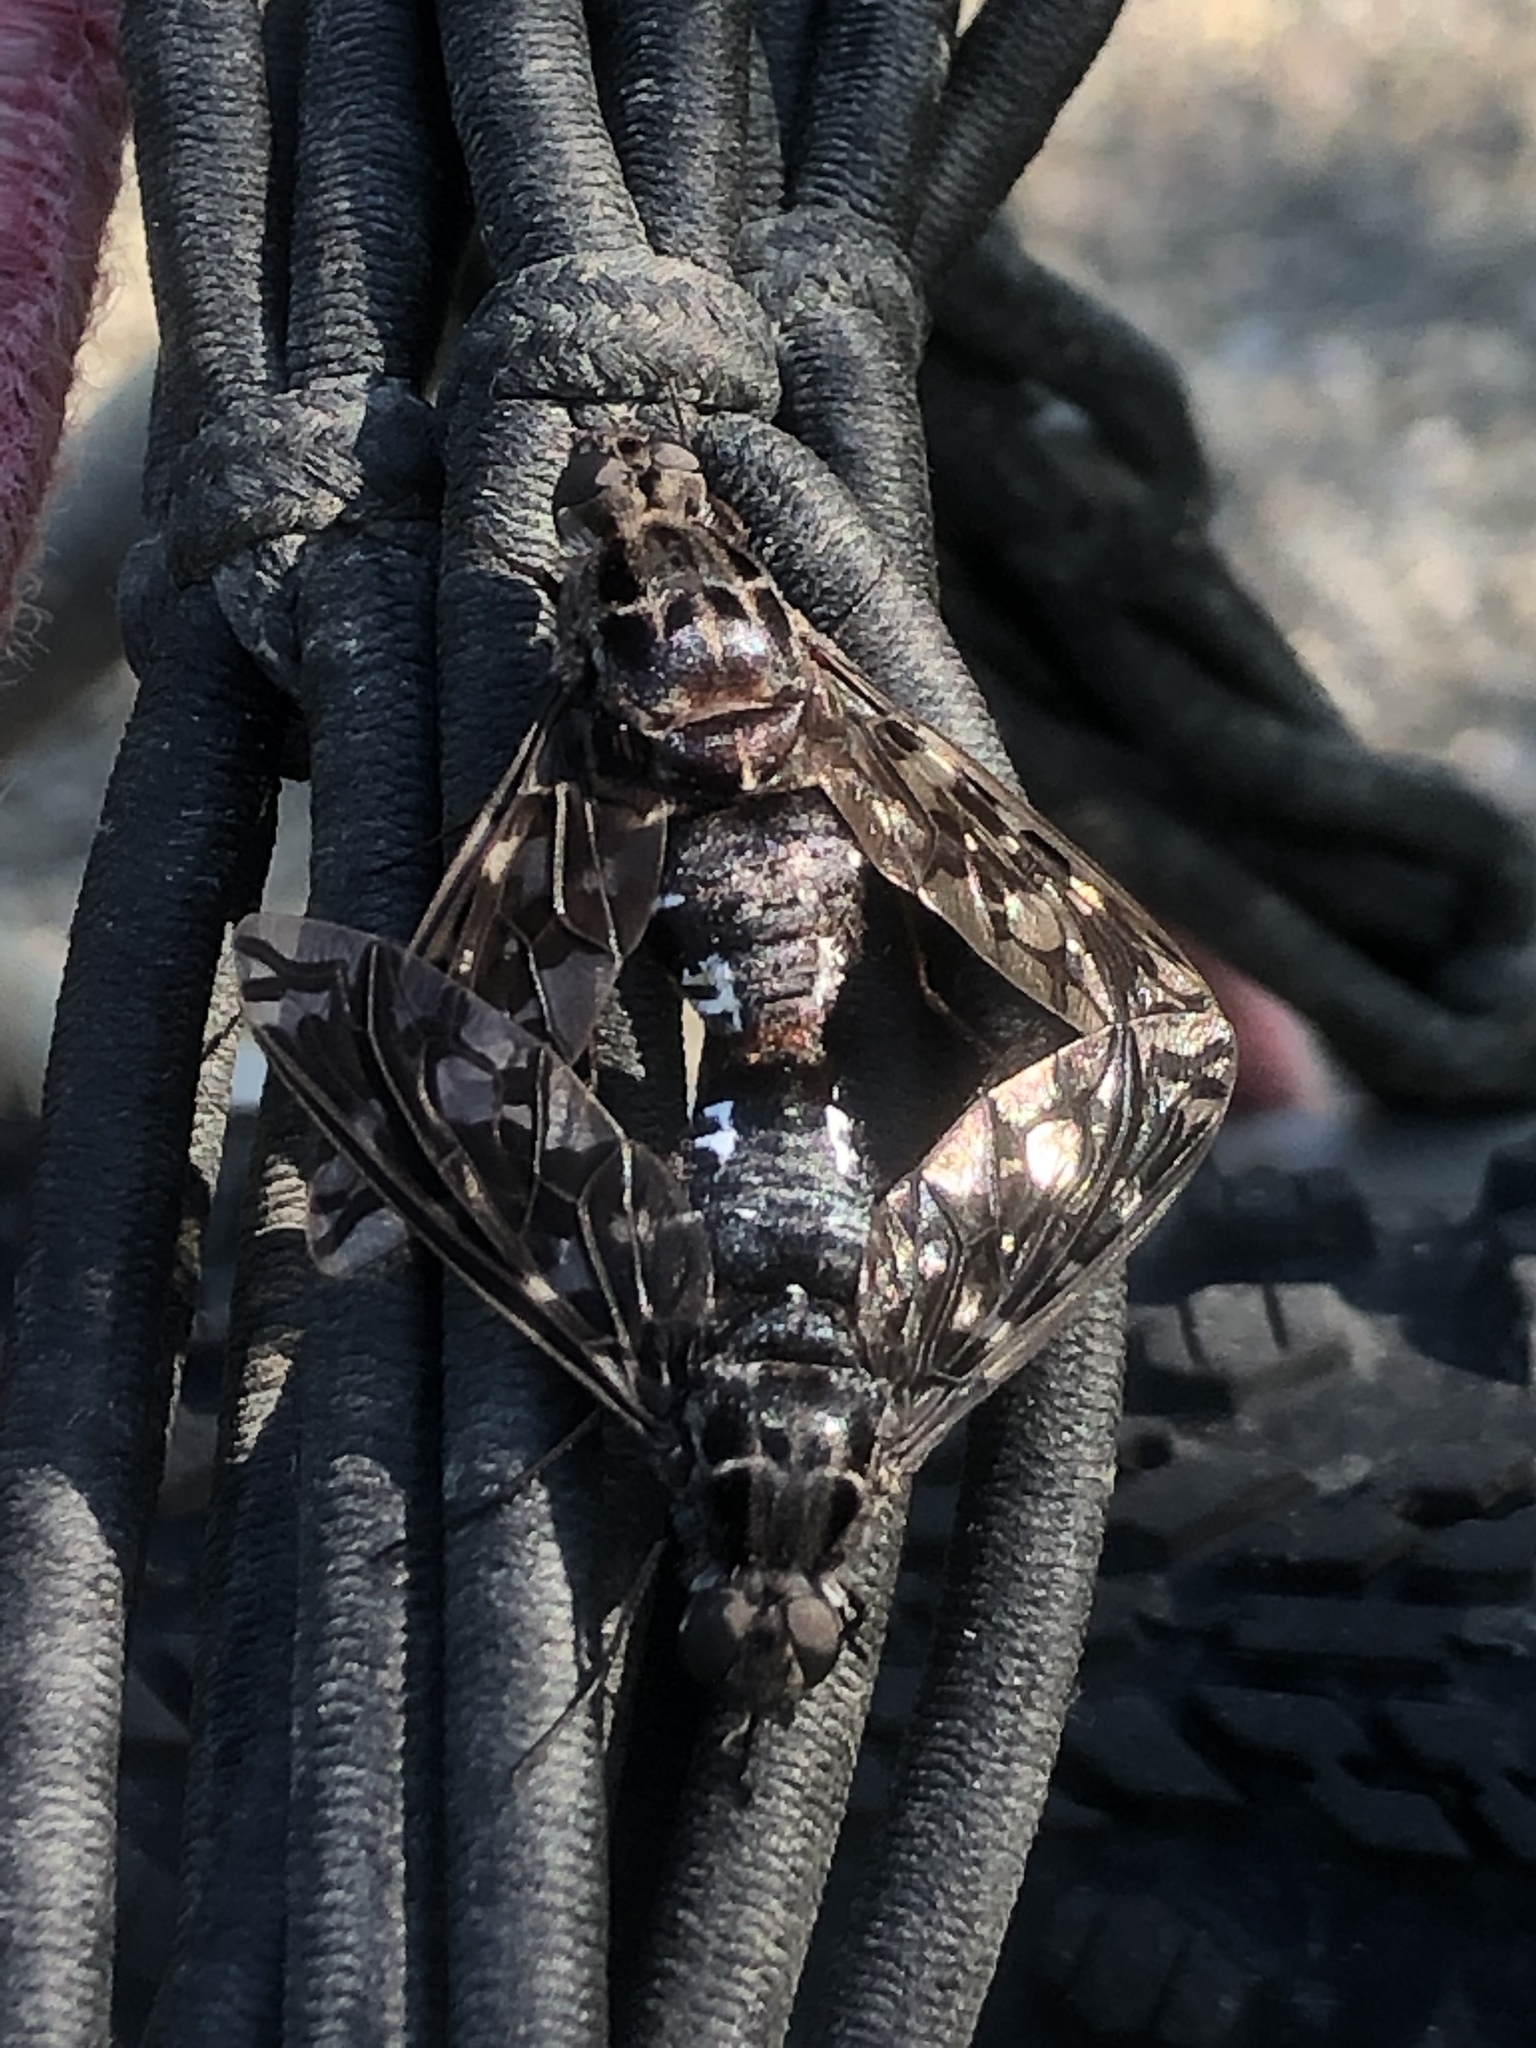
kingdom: Animalia
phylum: Arthropoda
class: Insecta
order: Diptera
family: Bombyliidae
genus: Xenox
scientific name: Xenox tigrinus
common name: Tiger bee fly
